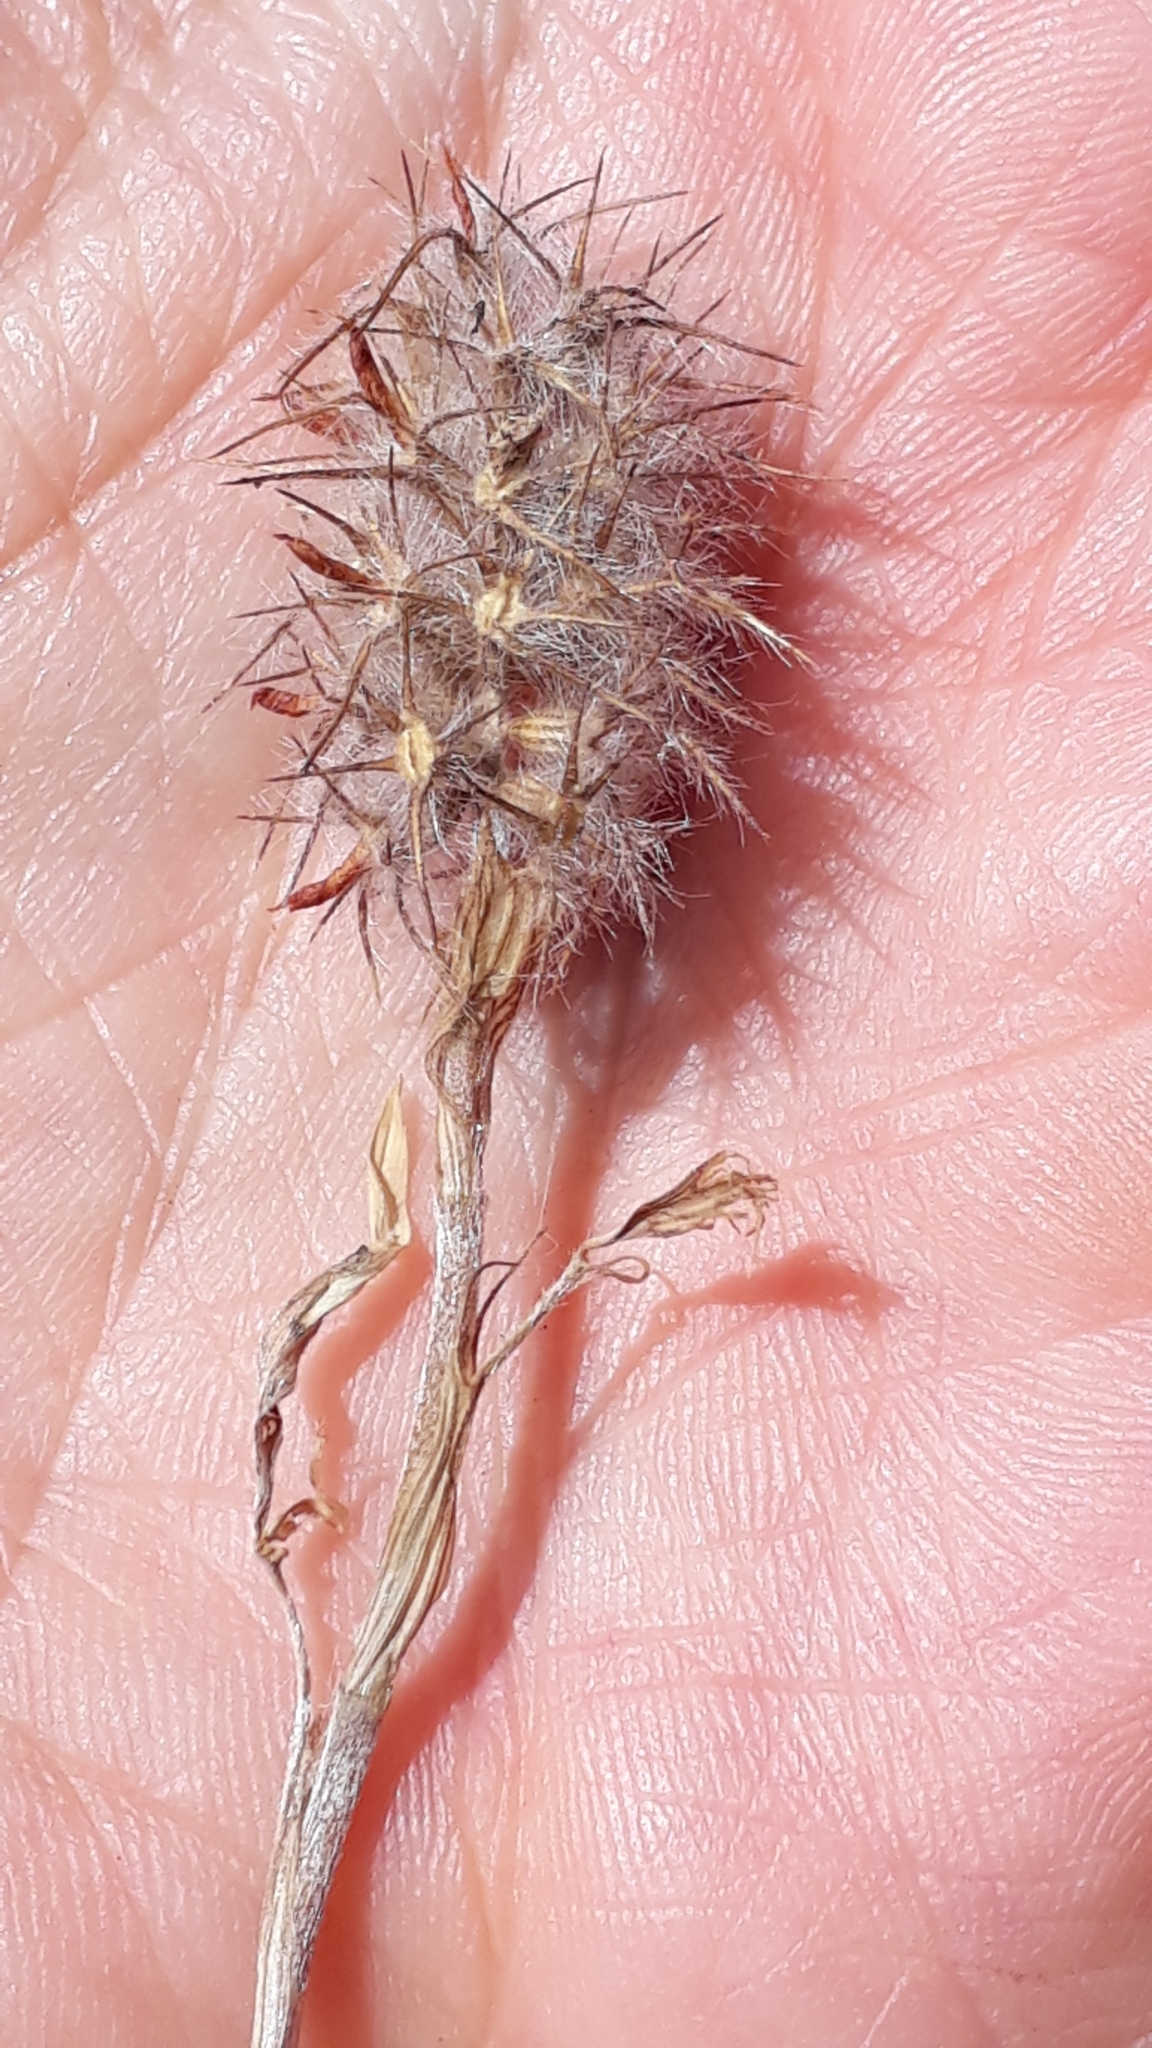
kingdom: Plantae
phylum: Tracheophyta
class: Magnoliopsida
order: Fabales
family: Fabaceae
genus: Trifolium
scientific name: Trifolium angustifolium
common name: Narrow clover
